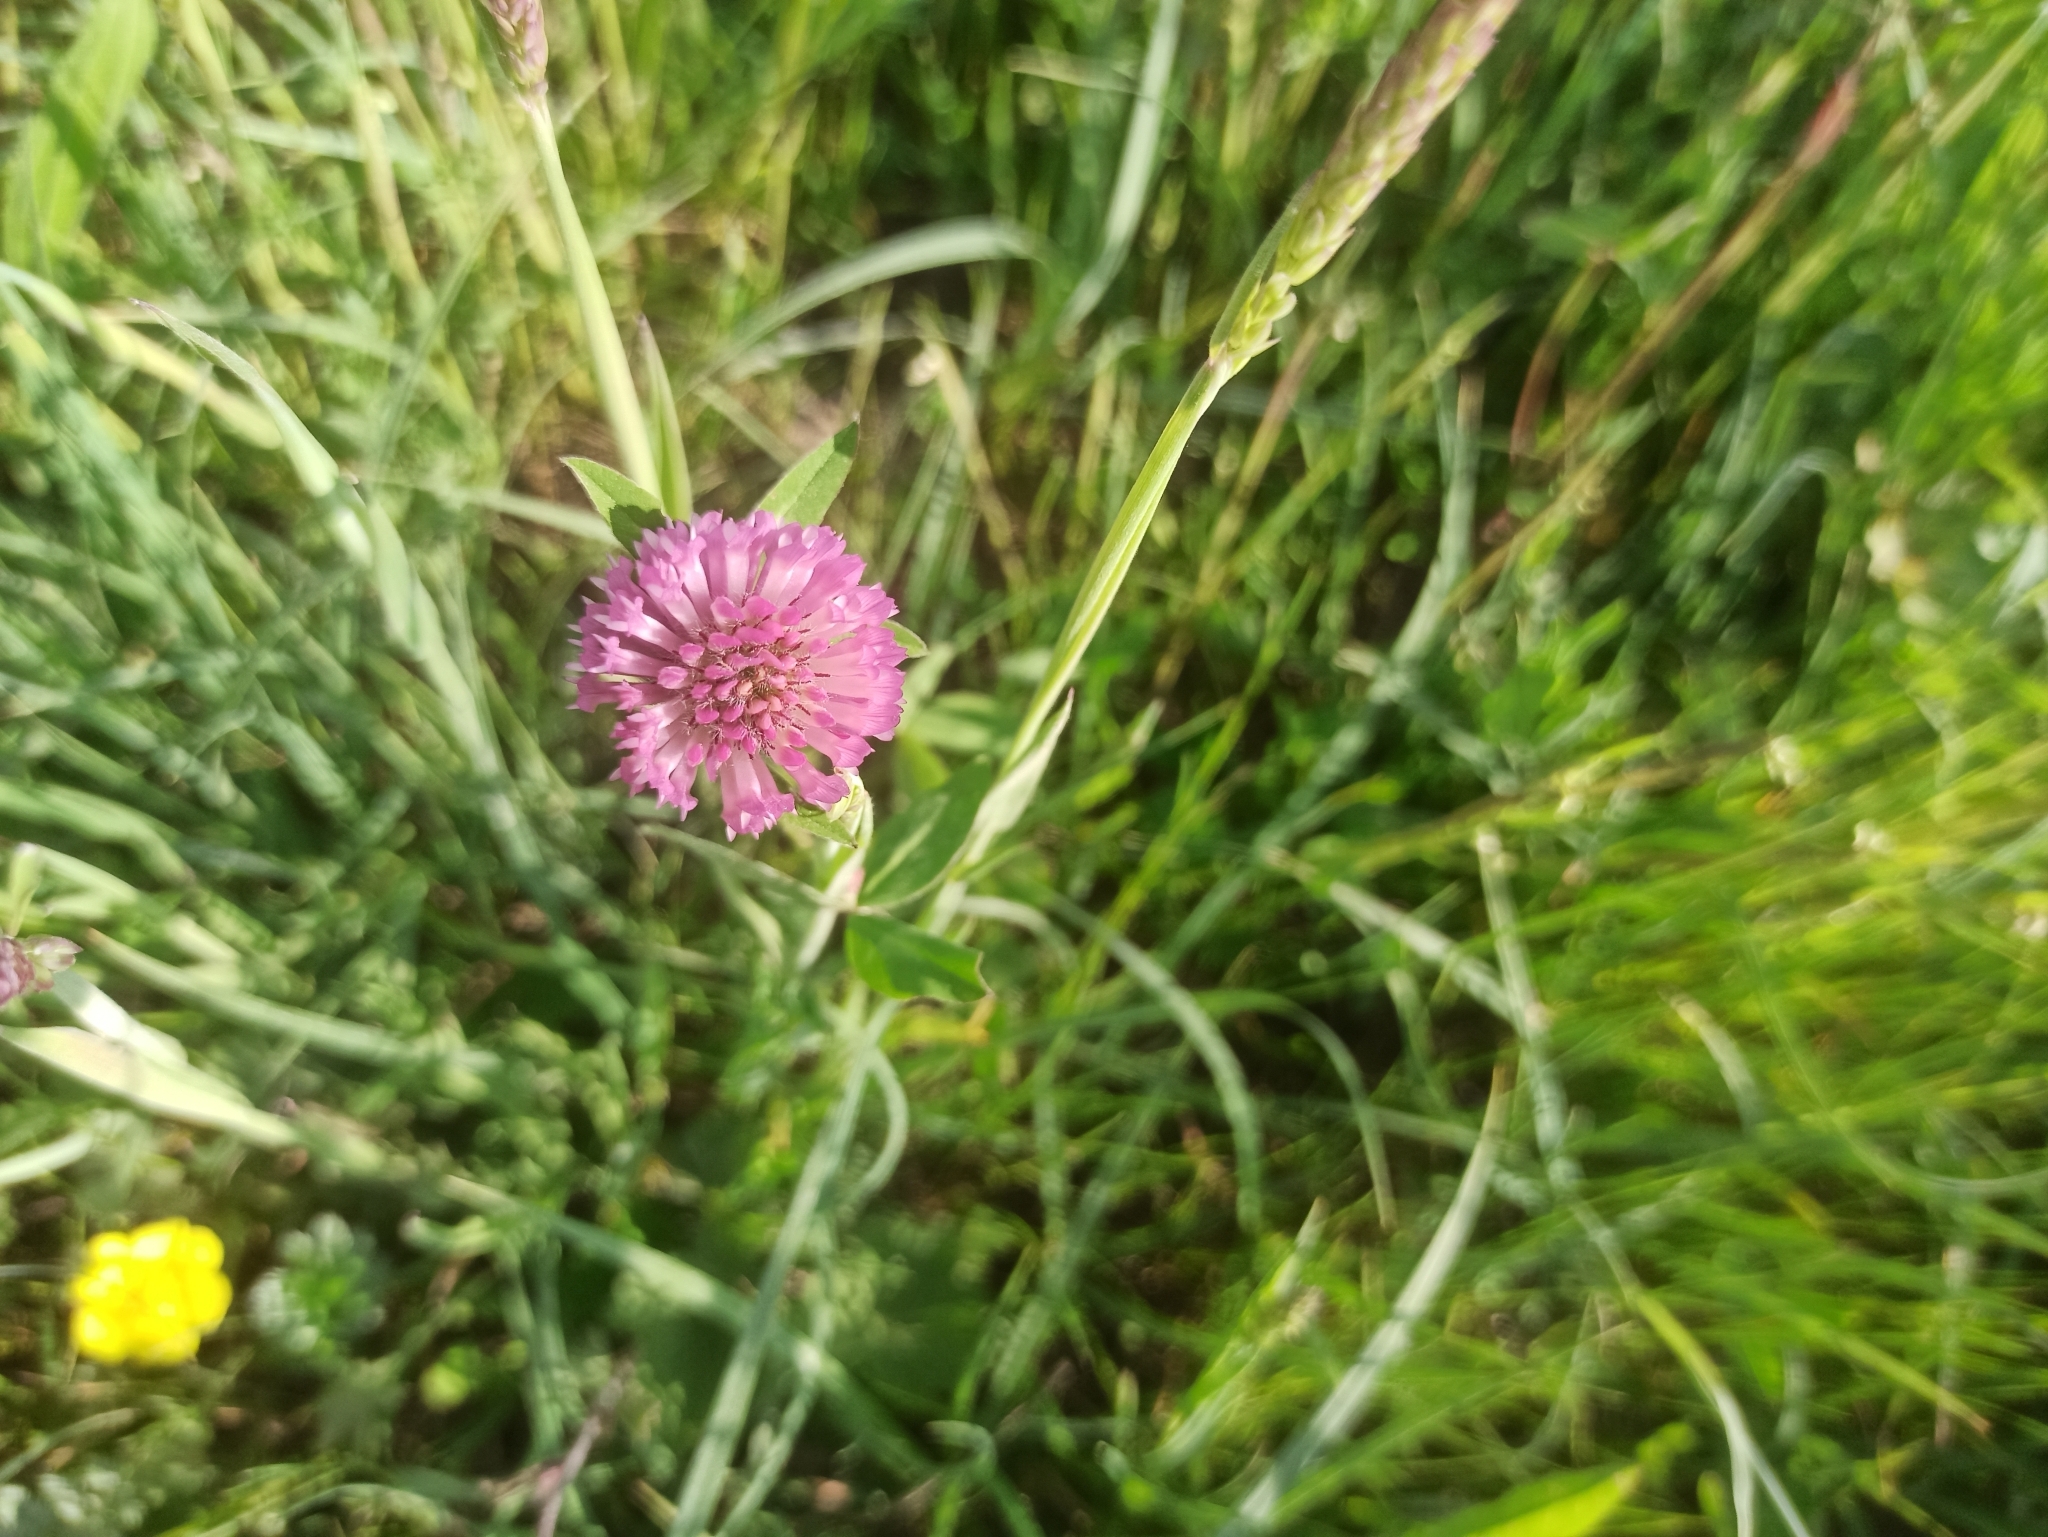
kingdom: Plantae
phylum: Tracheophyta
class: Magnoliopsida
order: Fabales
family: Fabaceae
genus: Trifolium
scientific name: Trifolium pratense
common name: Red clover
